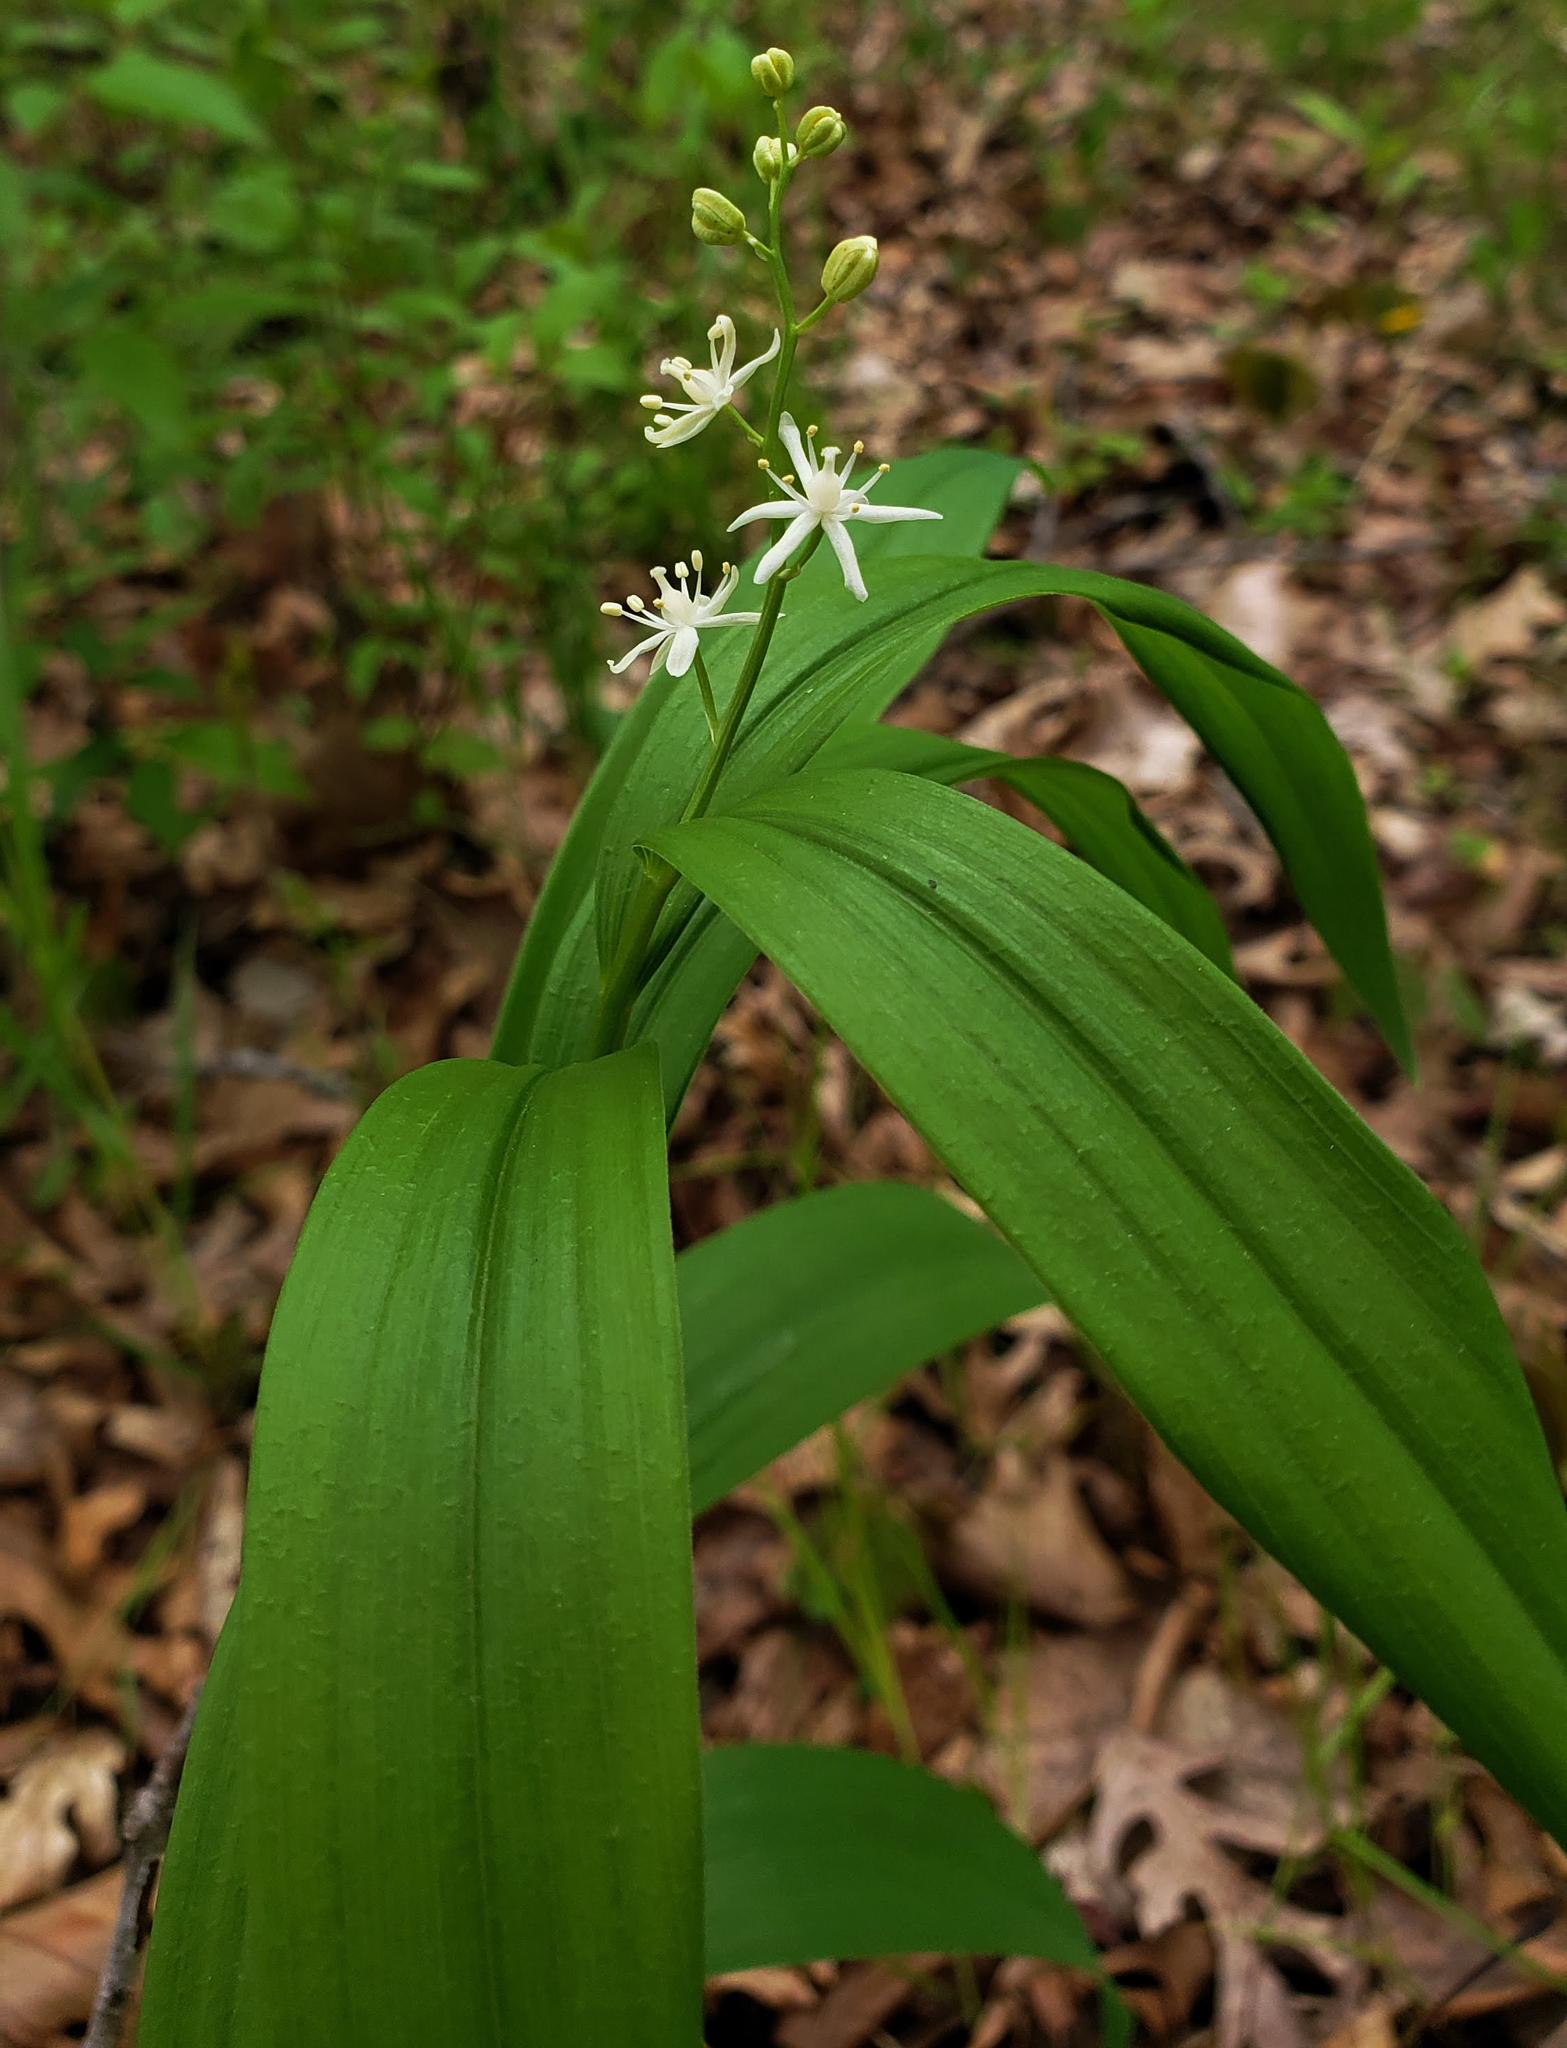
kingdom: Plantae
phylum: Tracheophyta
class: Liliopsida
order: Asparagales
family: Asparagaceae
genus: Maianthemum
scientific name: Maianthemum stellatum
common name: Little false solomon's seal
